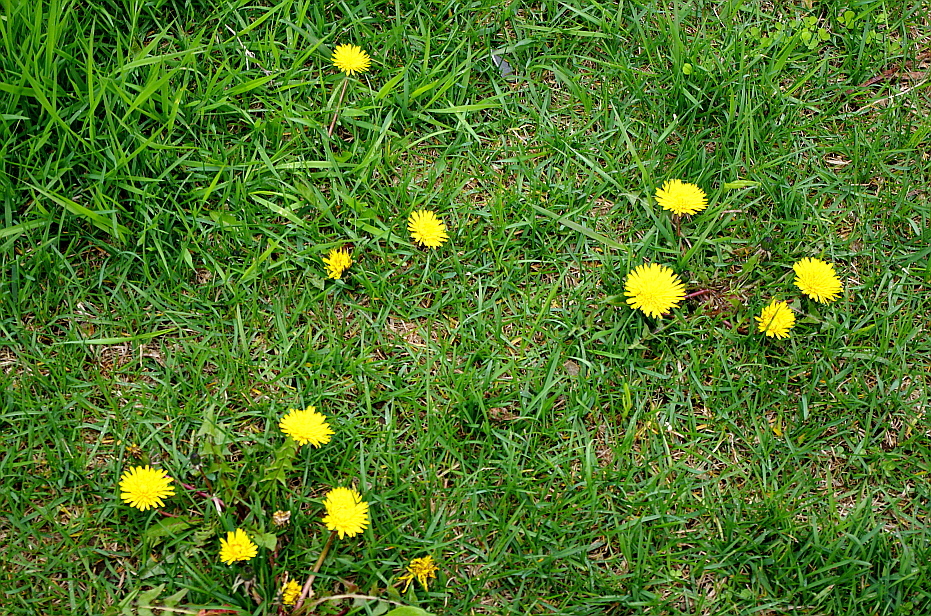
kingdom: Plantae
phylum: Tracheophyta
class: Magnoliopsida
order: Asterales
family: Asteraceae
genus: Taraxacum
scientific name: Taraxacum officinale
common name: Common dandelion
